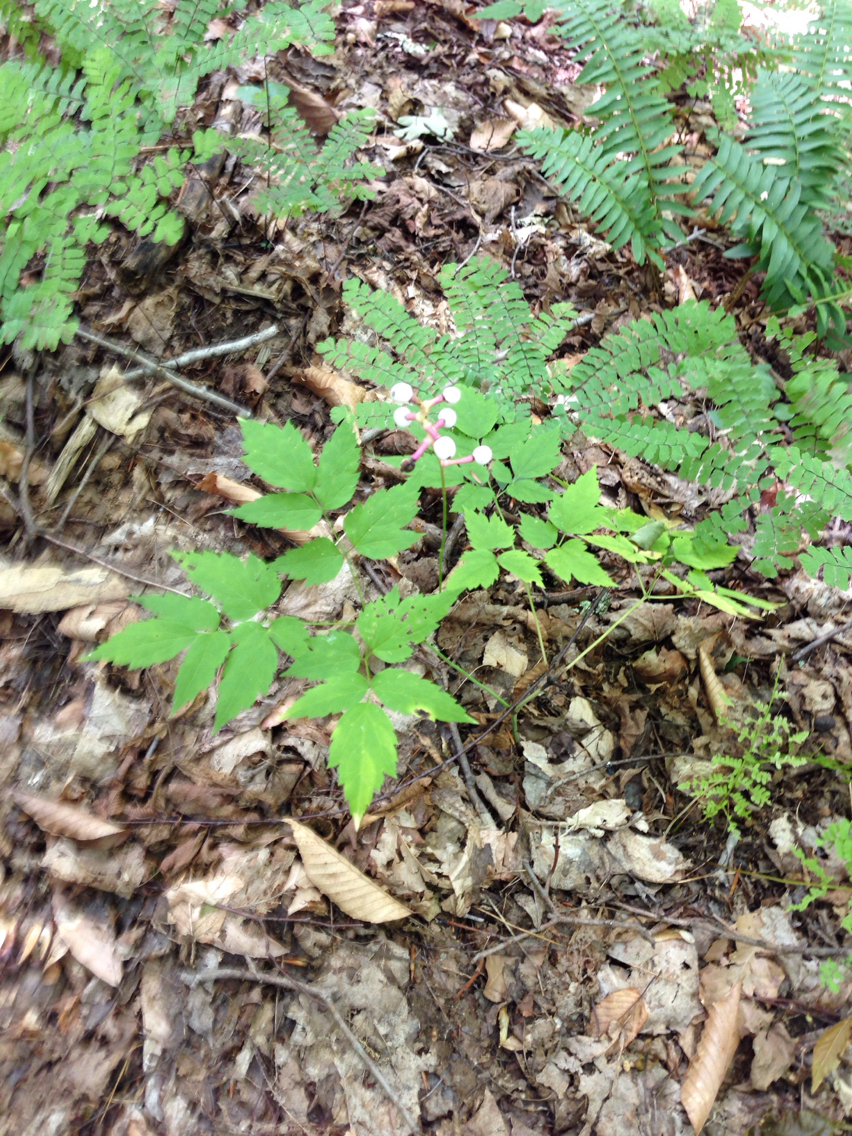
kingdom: Plantae
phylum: Tracheophyta
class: Magnoliopsida
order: Ranunculales
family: Ranunculaceae
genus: Actaea
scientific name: Actaea pachypoda
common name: Doll's-eyes
